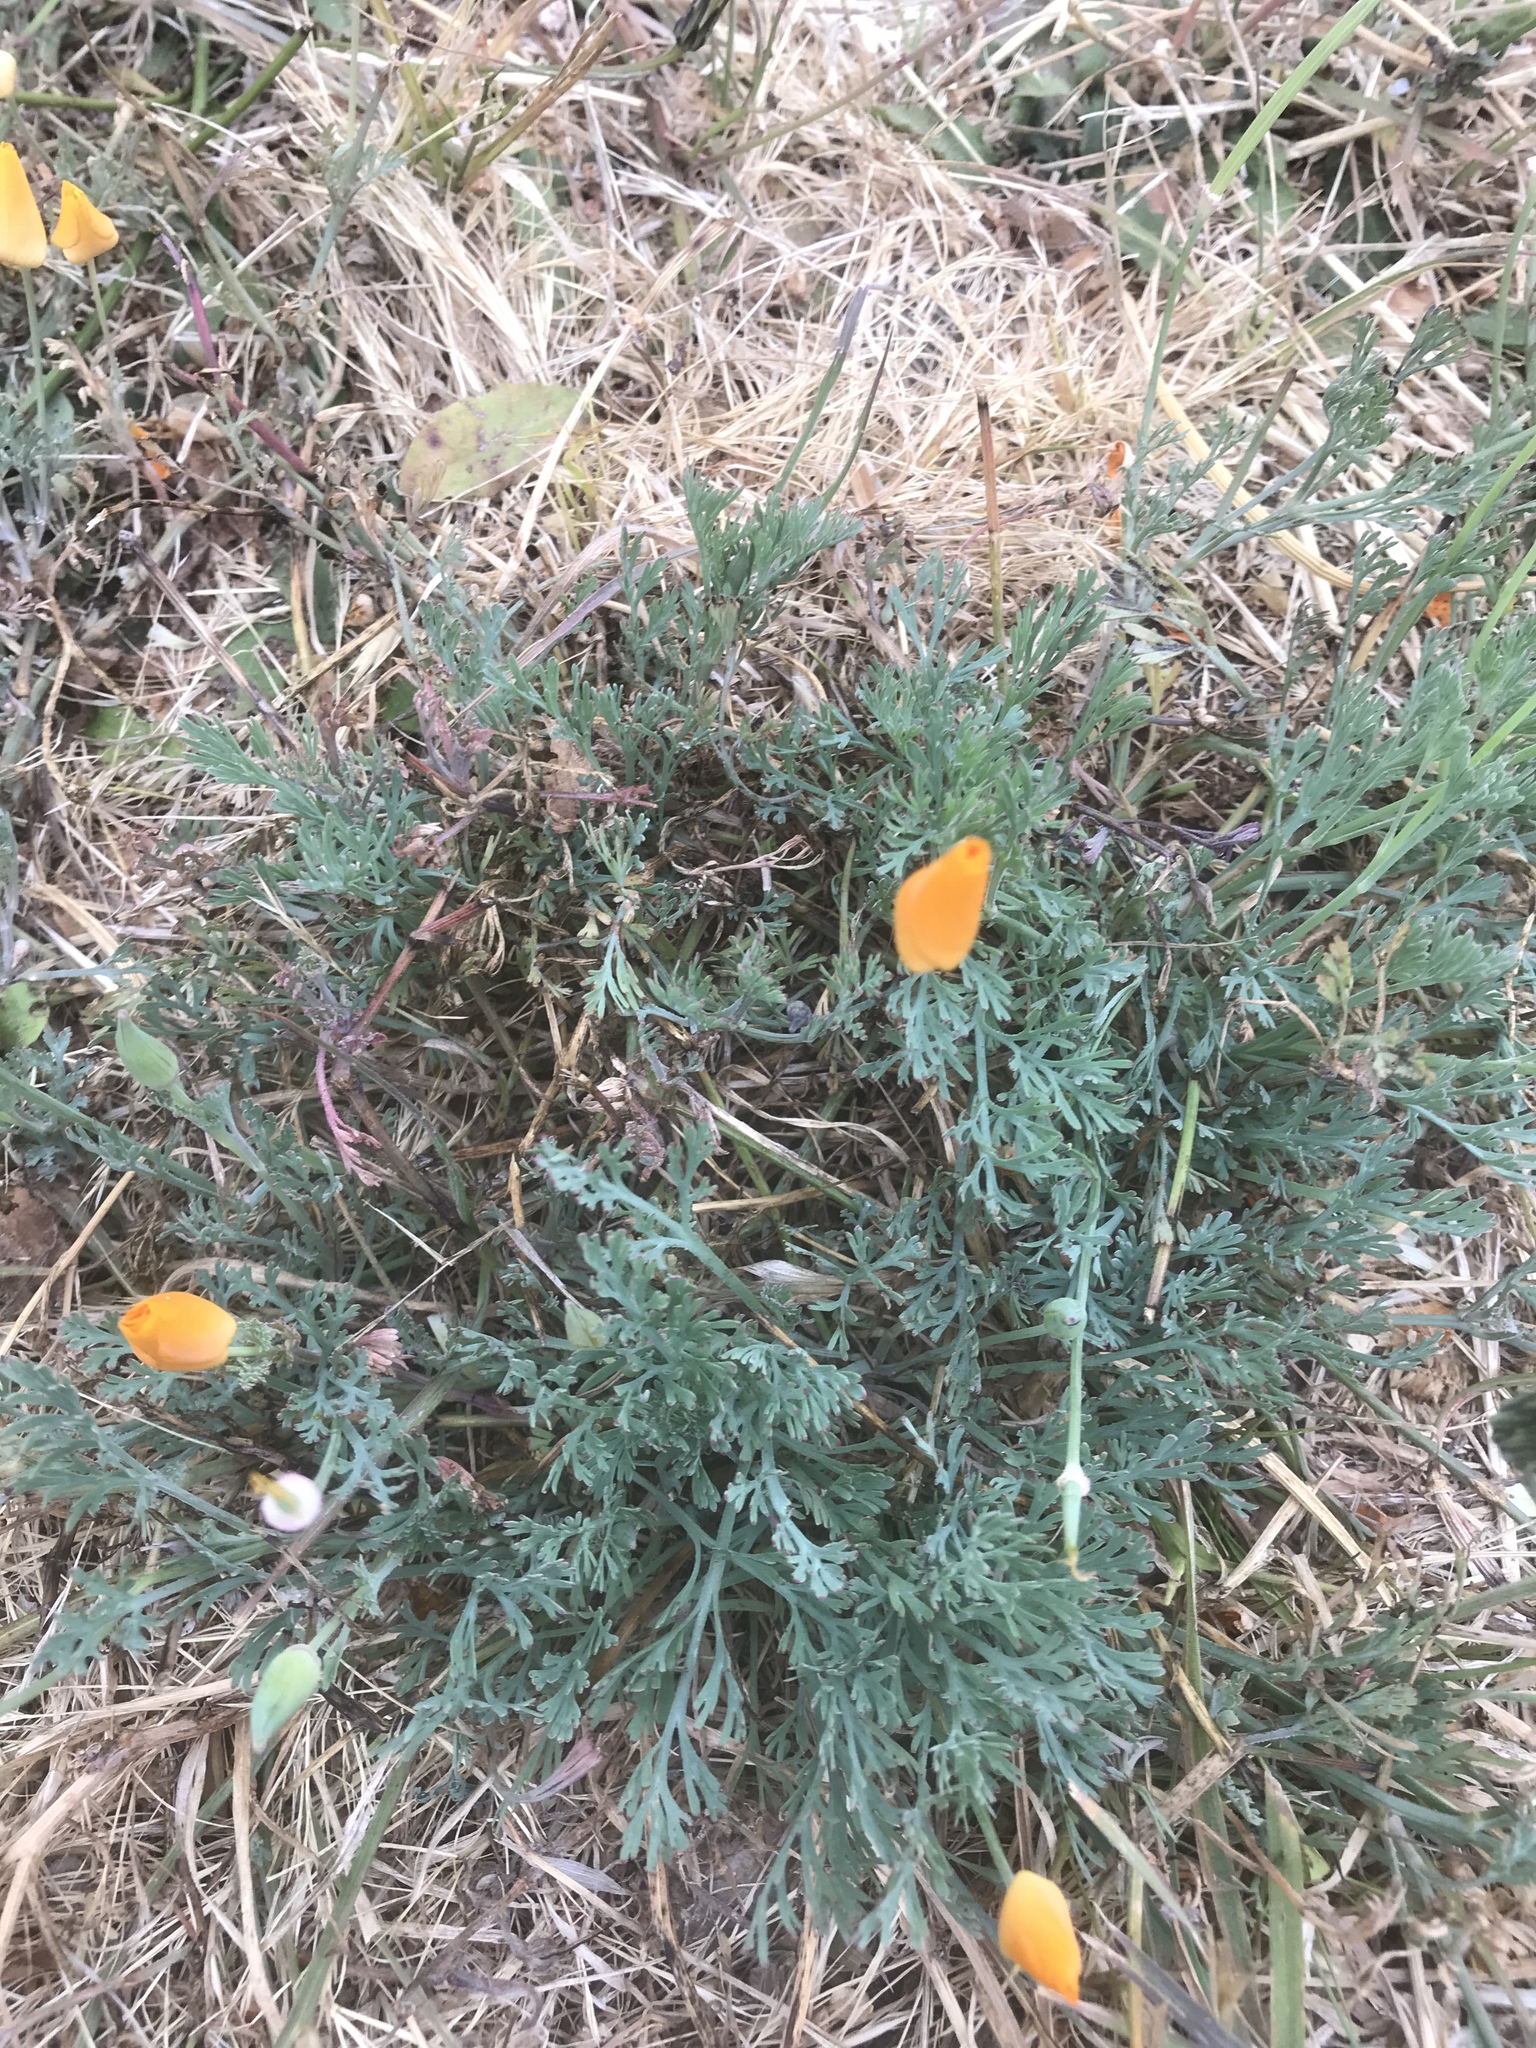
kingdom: Plantae
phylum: Tracheophyta
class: Magnoliopsida
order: Ranunculales
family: Papaveraceae
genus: Eschscholzia
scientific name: Eschscholzia californica
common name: California poppy
